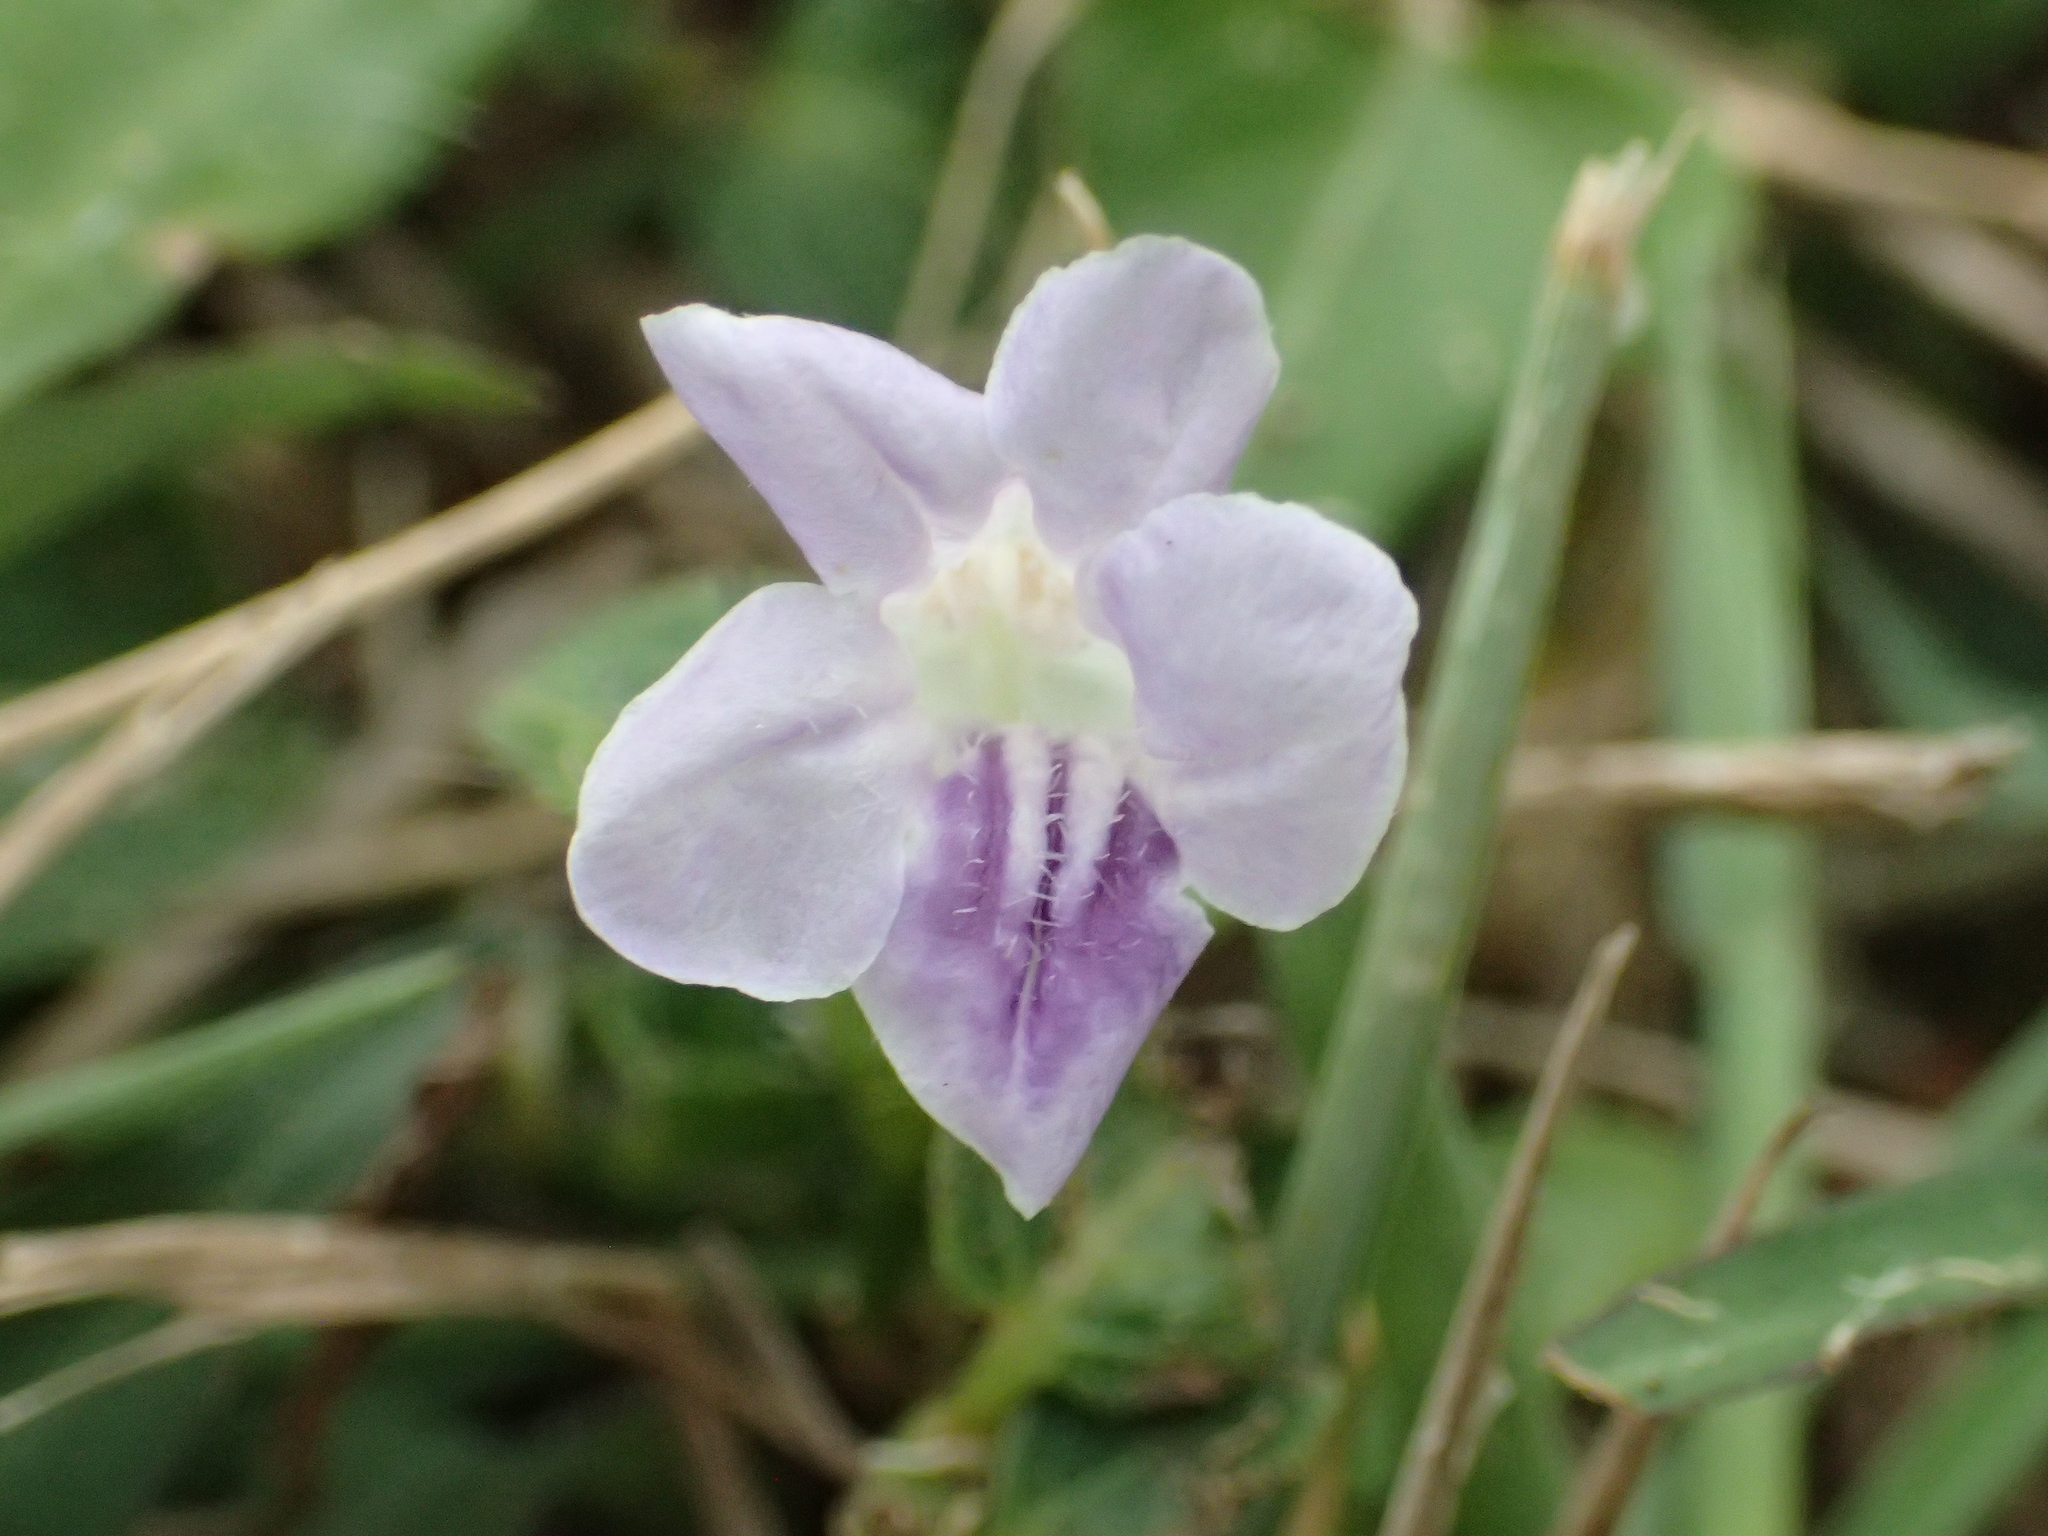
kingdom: Plantae
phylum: Tracheophyta
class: Magnoliopsida
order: Lamiales
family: Acanthaceae
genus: Ruellia
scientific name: Ruellia repens
